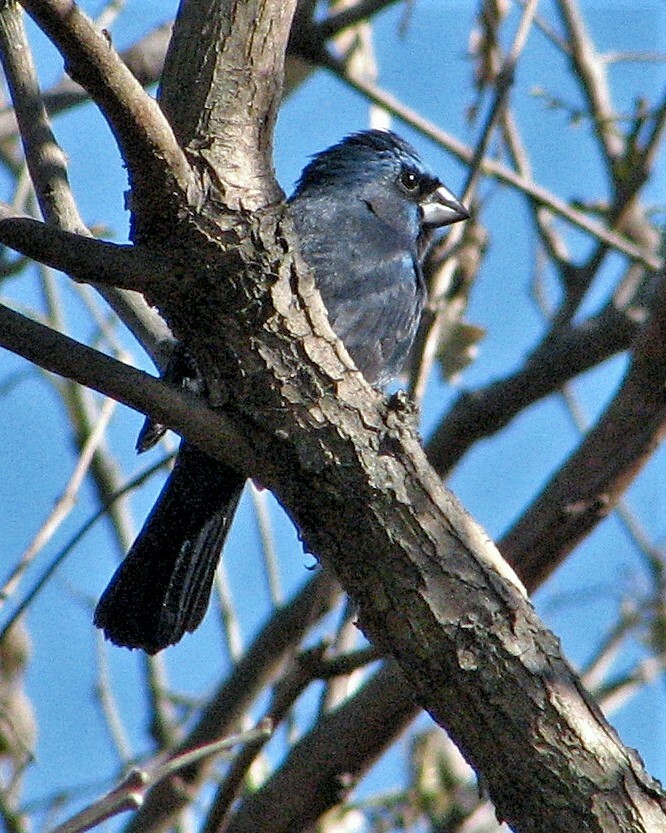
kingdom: Animalia
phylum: Chordata
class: Aves
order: Passeriformes
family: Cardinalidae
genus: Cyanoloxia
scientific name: Cyanoloxia brissonii
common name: Ultramarine grosbeak
